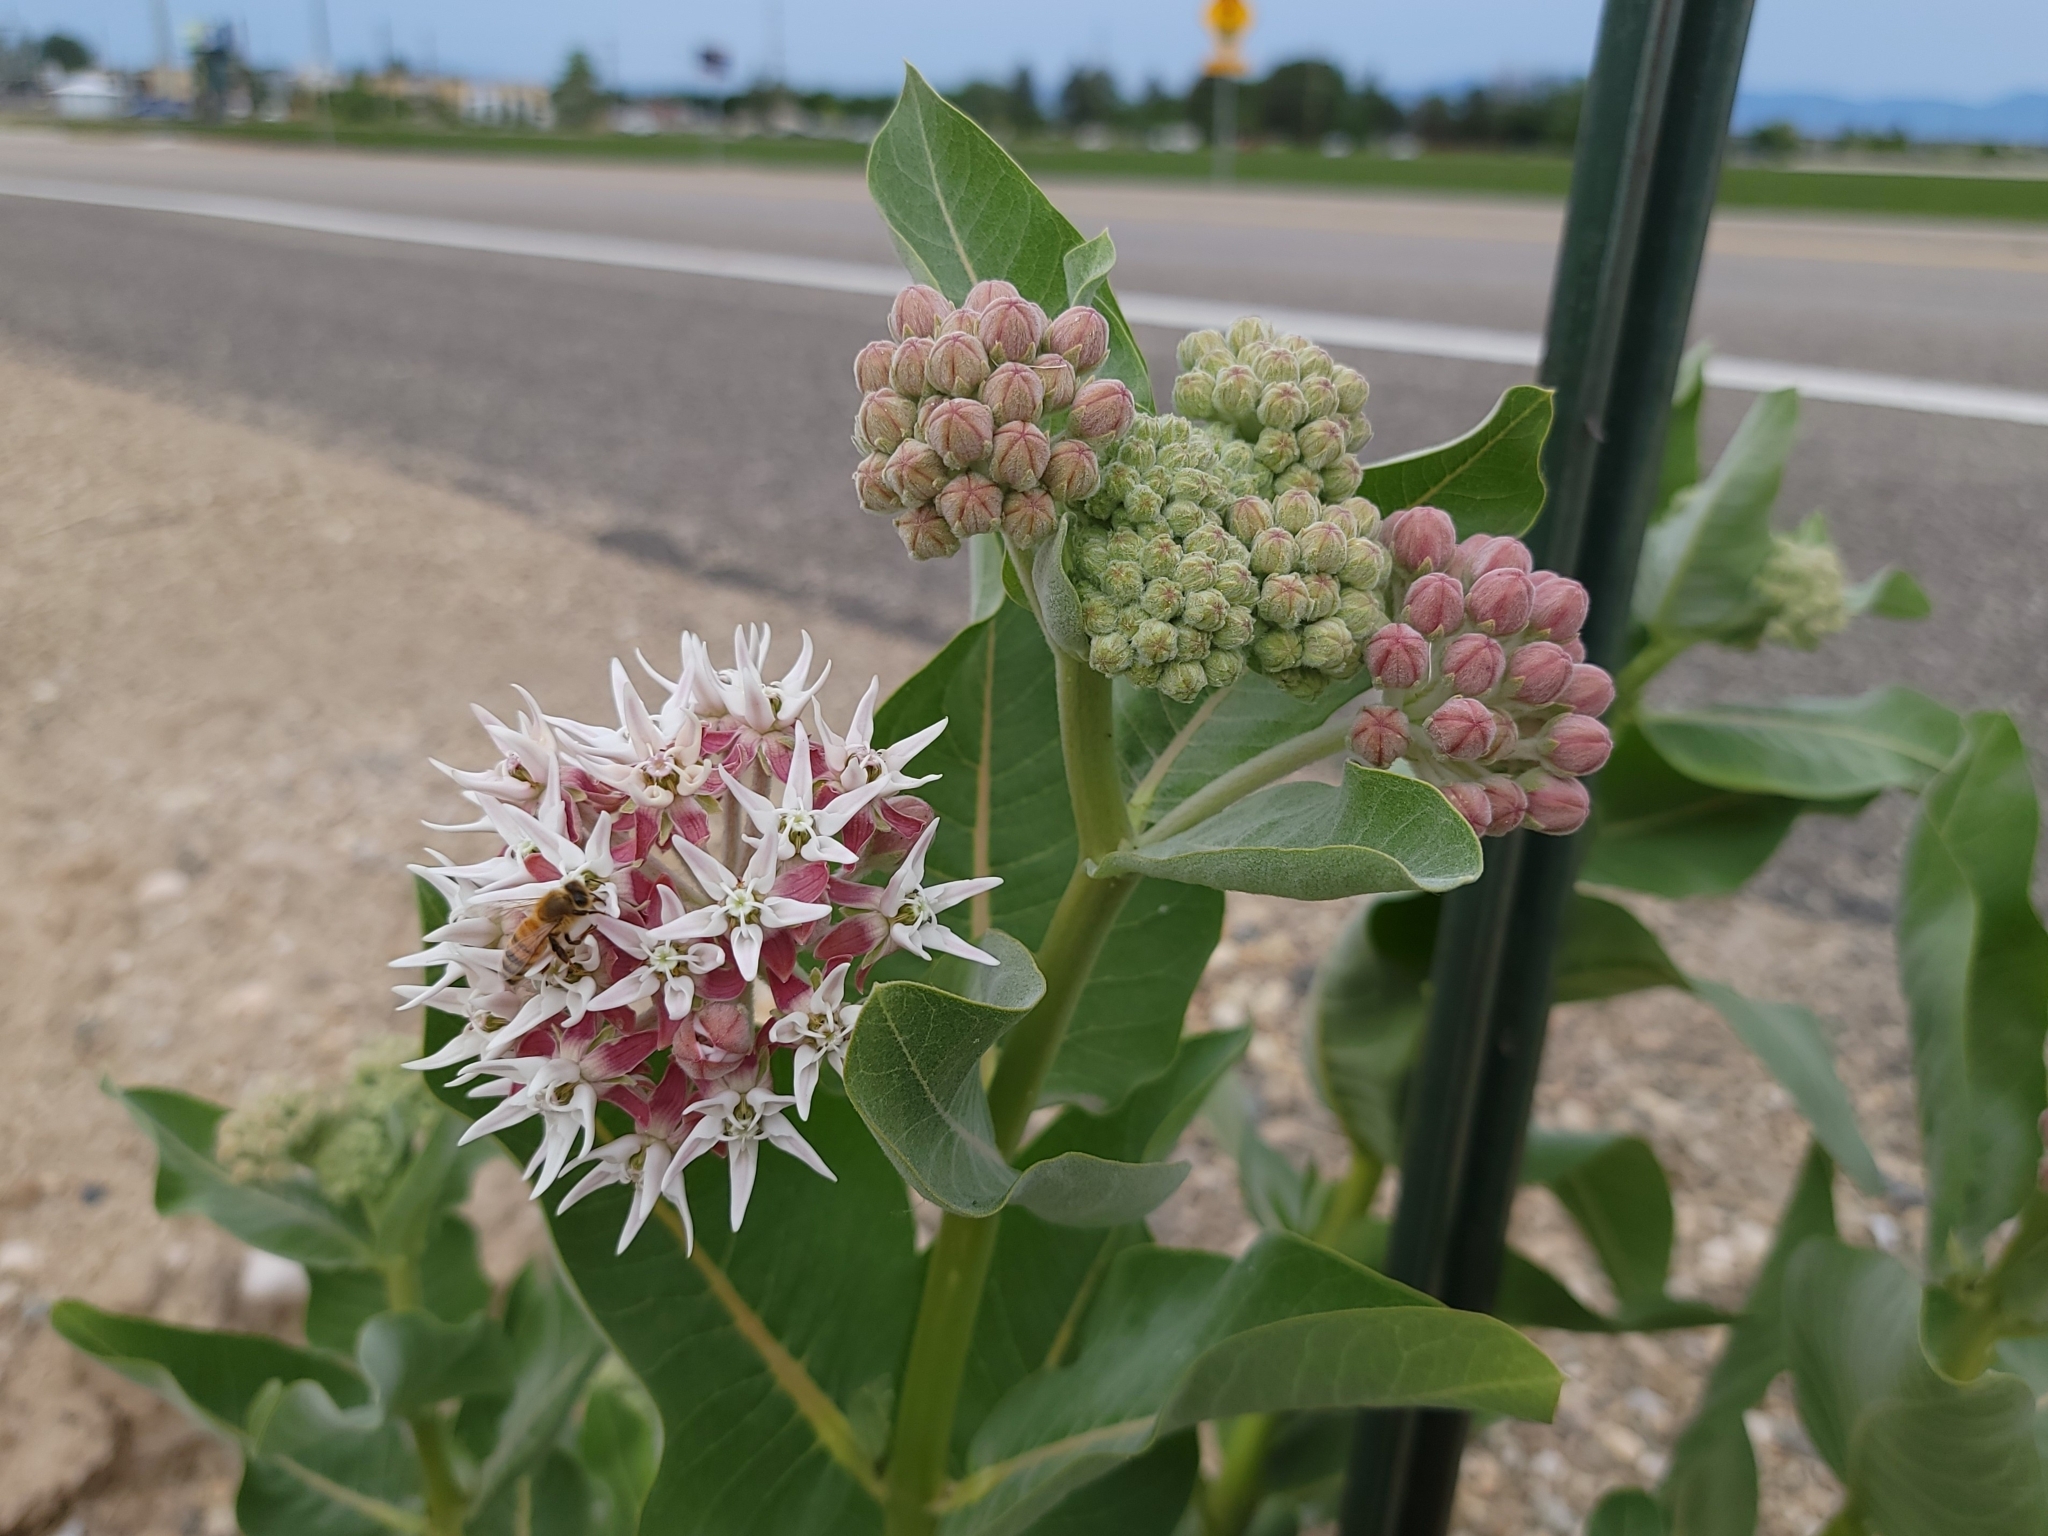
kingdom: Plantae
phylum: Tracheophyta
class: Magnoliopsida
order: Gentianales
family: Apocynaceae
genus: Asclepias
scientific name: Asclepias speciosa
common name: Showy milkweed
